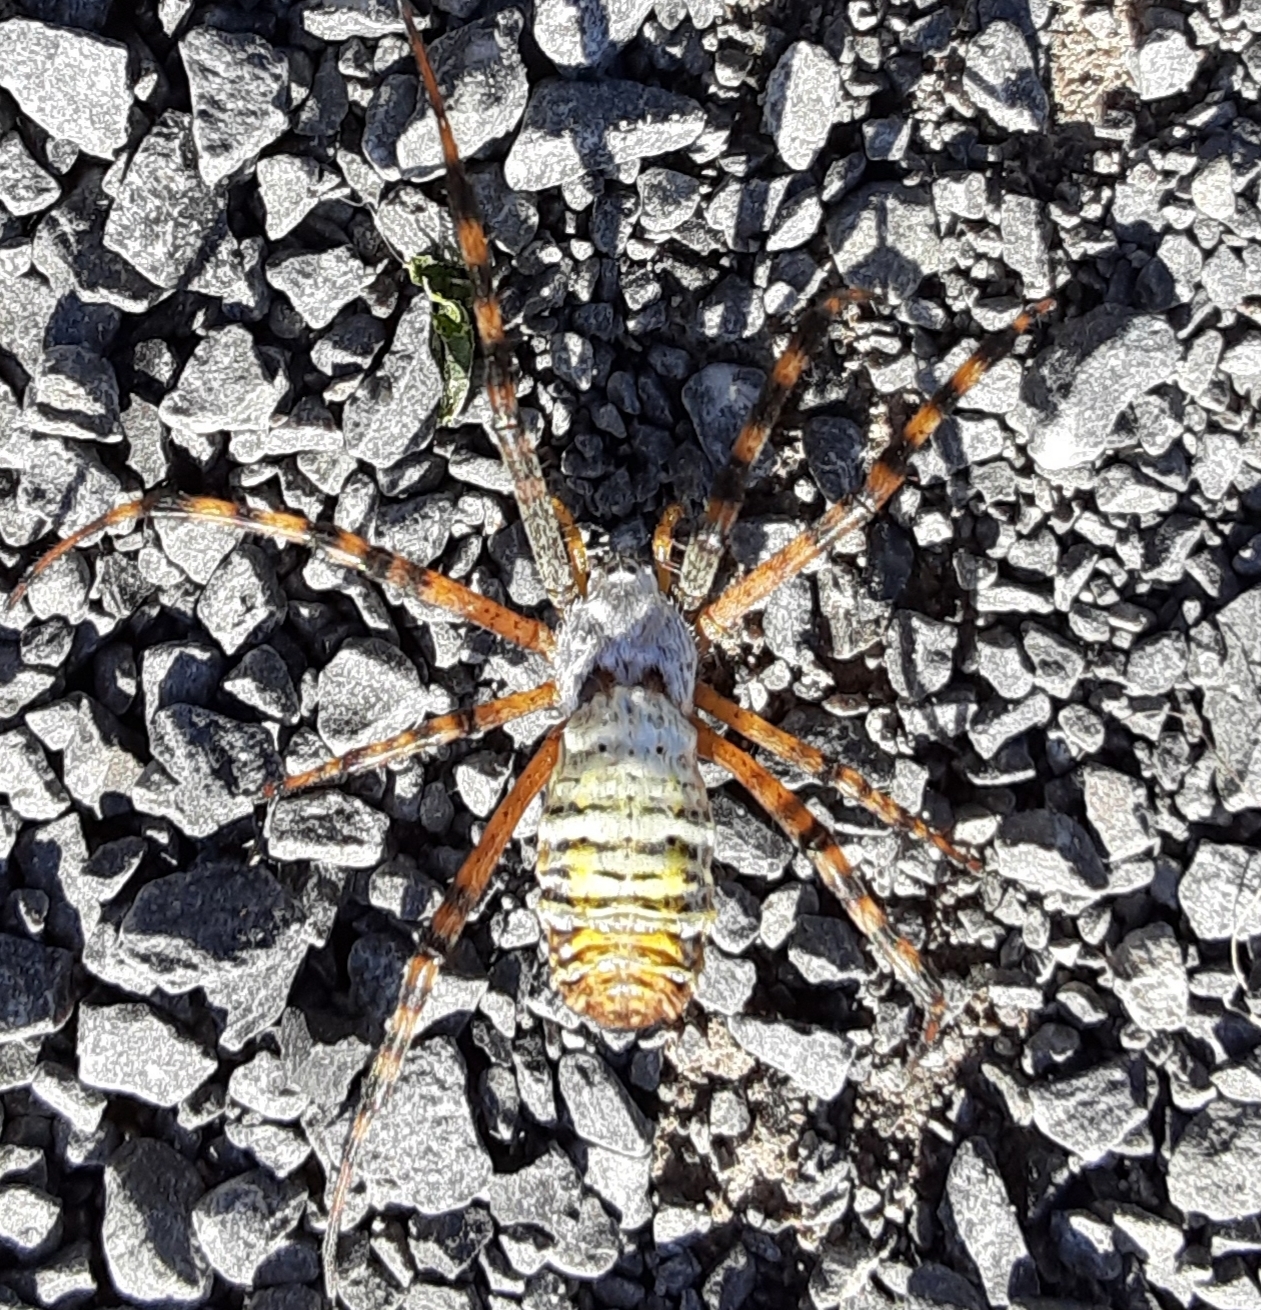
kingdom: Animalia
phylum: Arthropoda
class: Arachnida
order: Araneae
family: Araneidae
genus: Argiope
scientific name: Argiope trifasciata
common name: Banded garden spider
